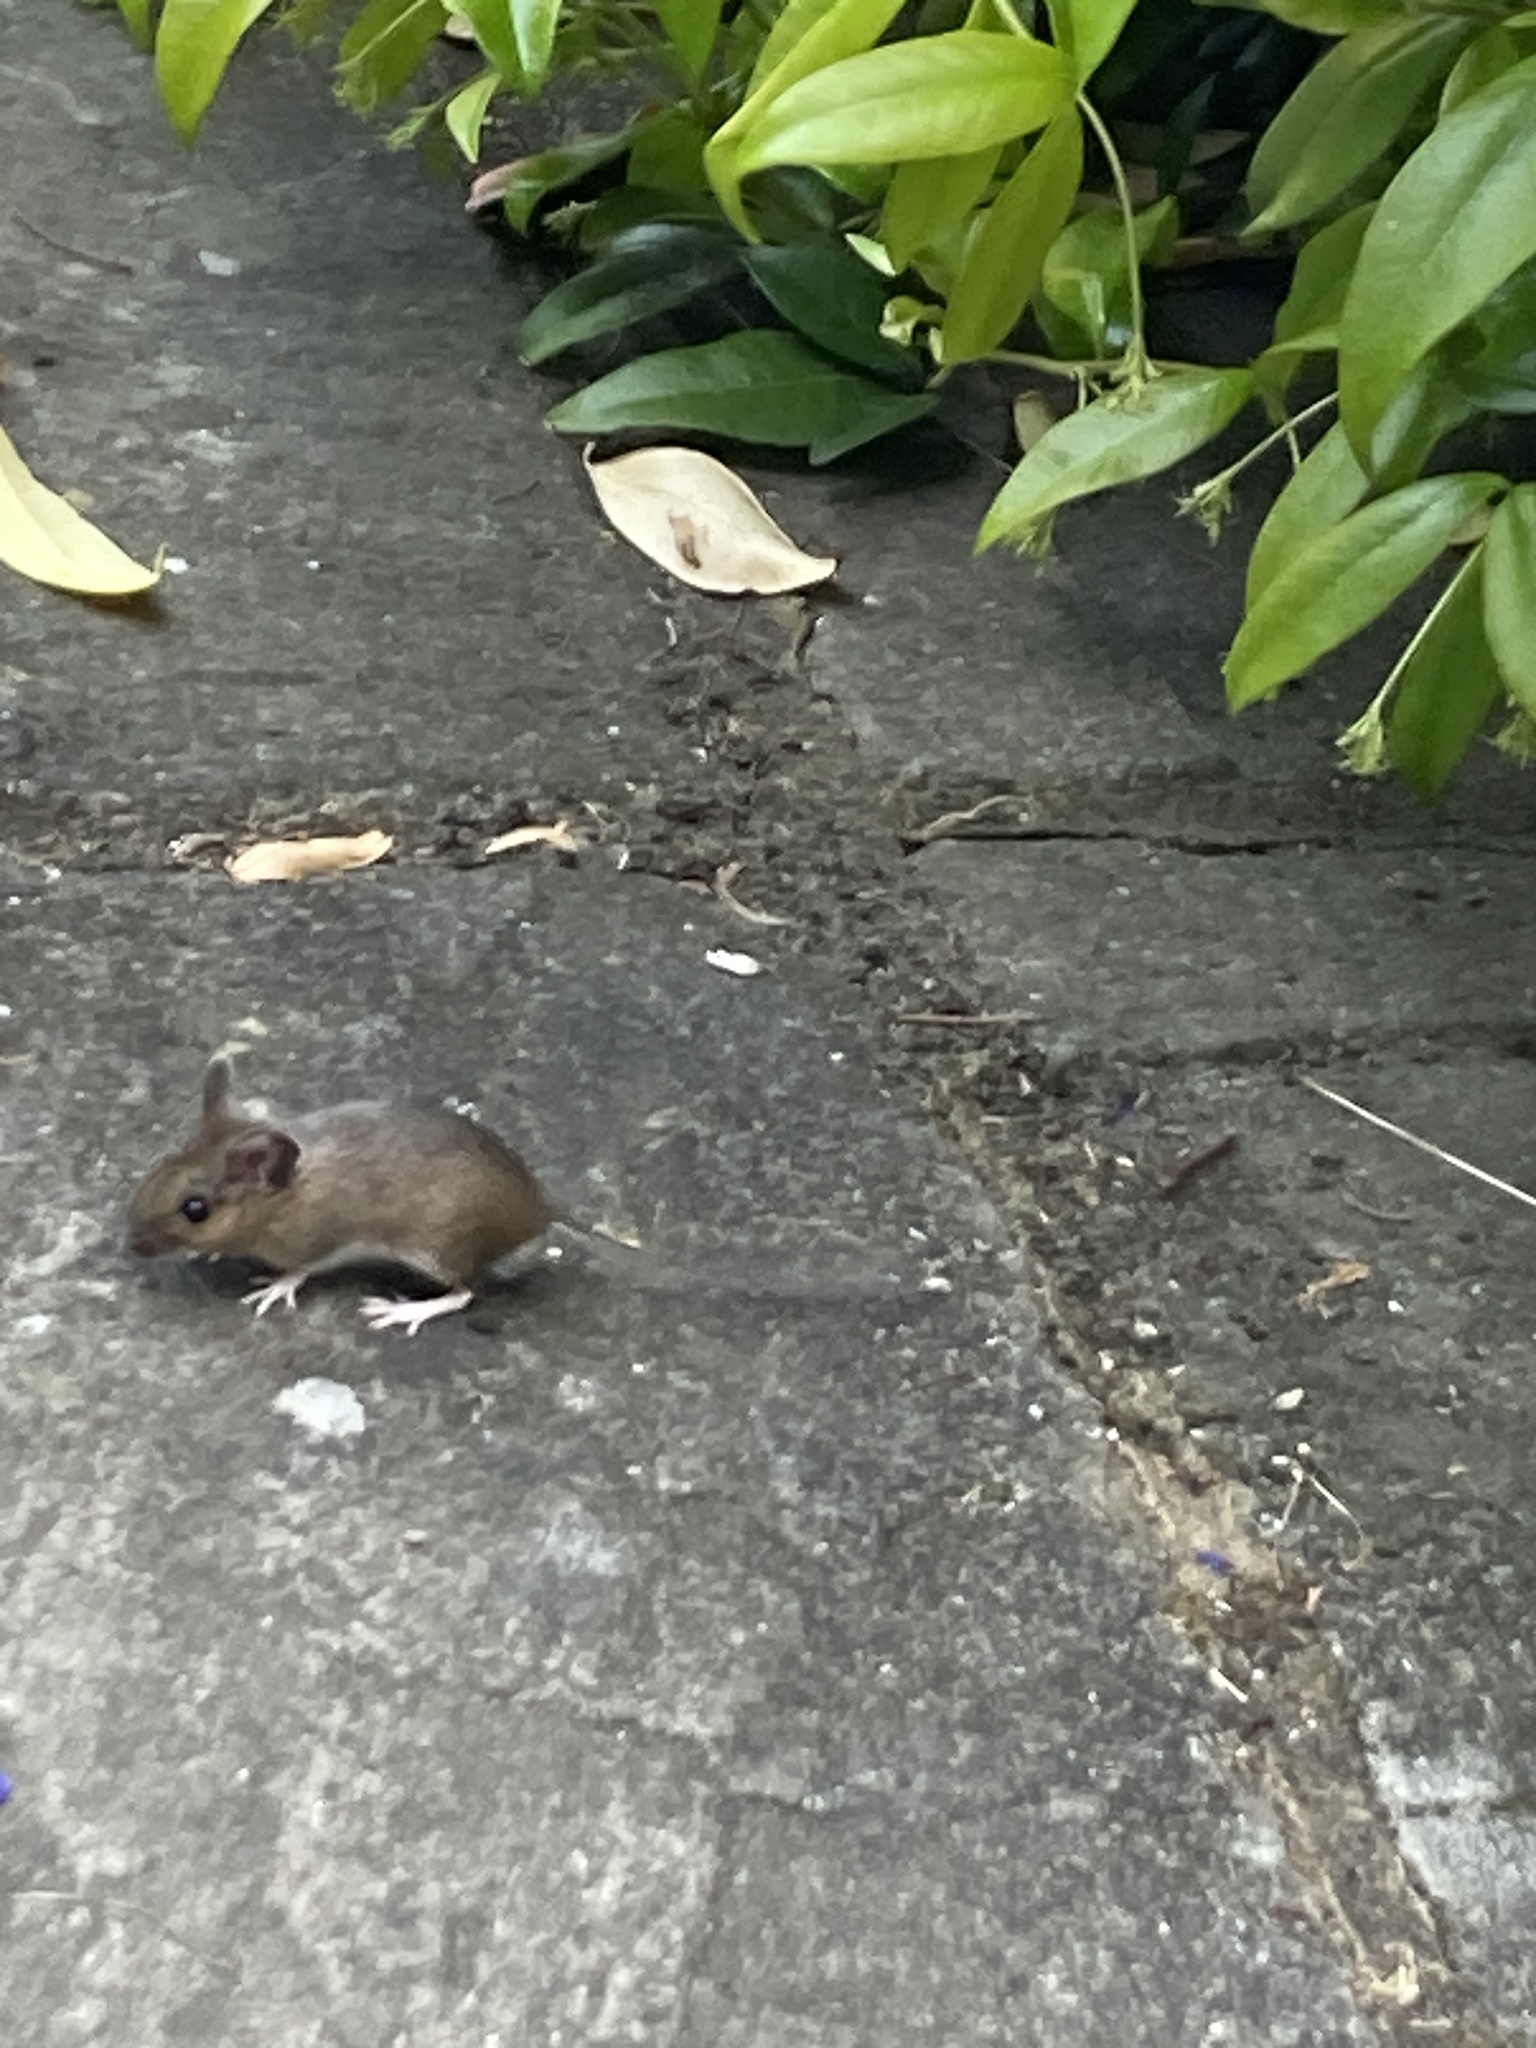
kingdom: Animalia
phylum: Chordata
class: Mammalia
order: Rodentia
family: Muridae
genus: Apodemus
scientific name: Apodemus sylvaticus
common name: Wood mouse
